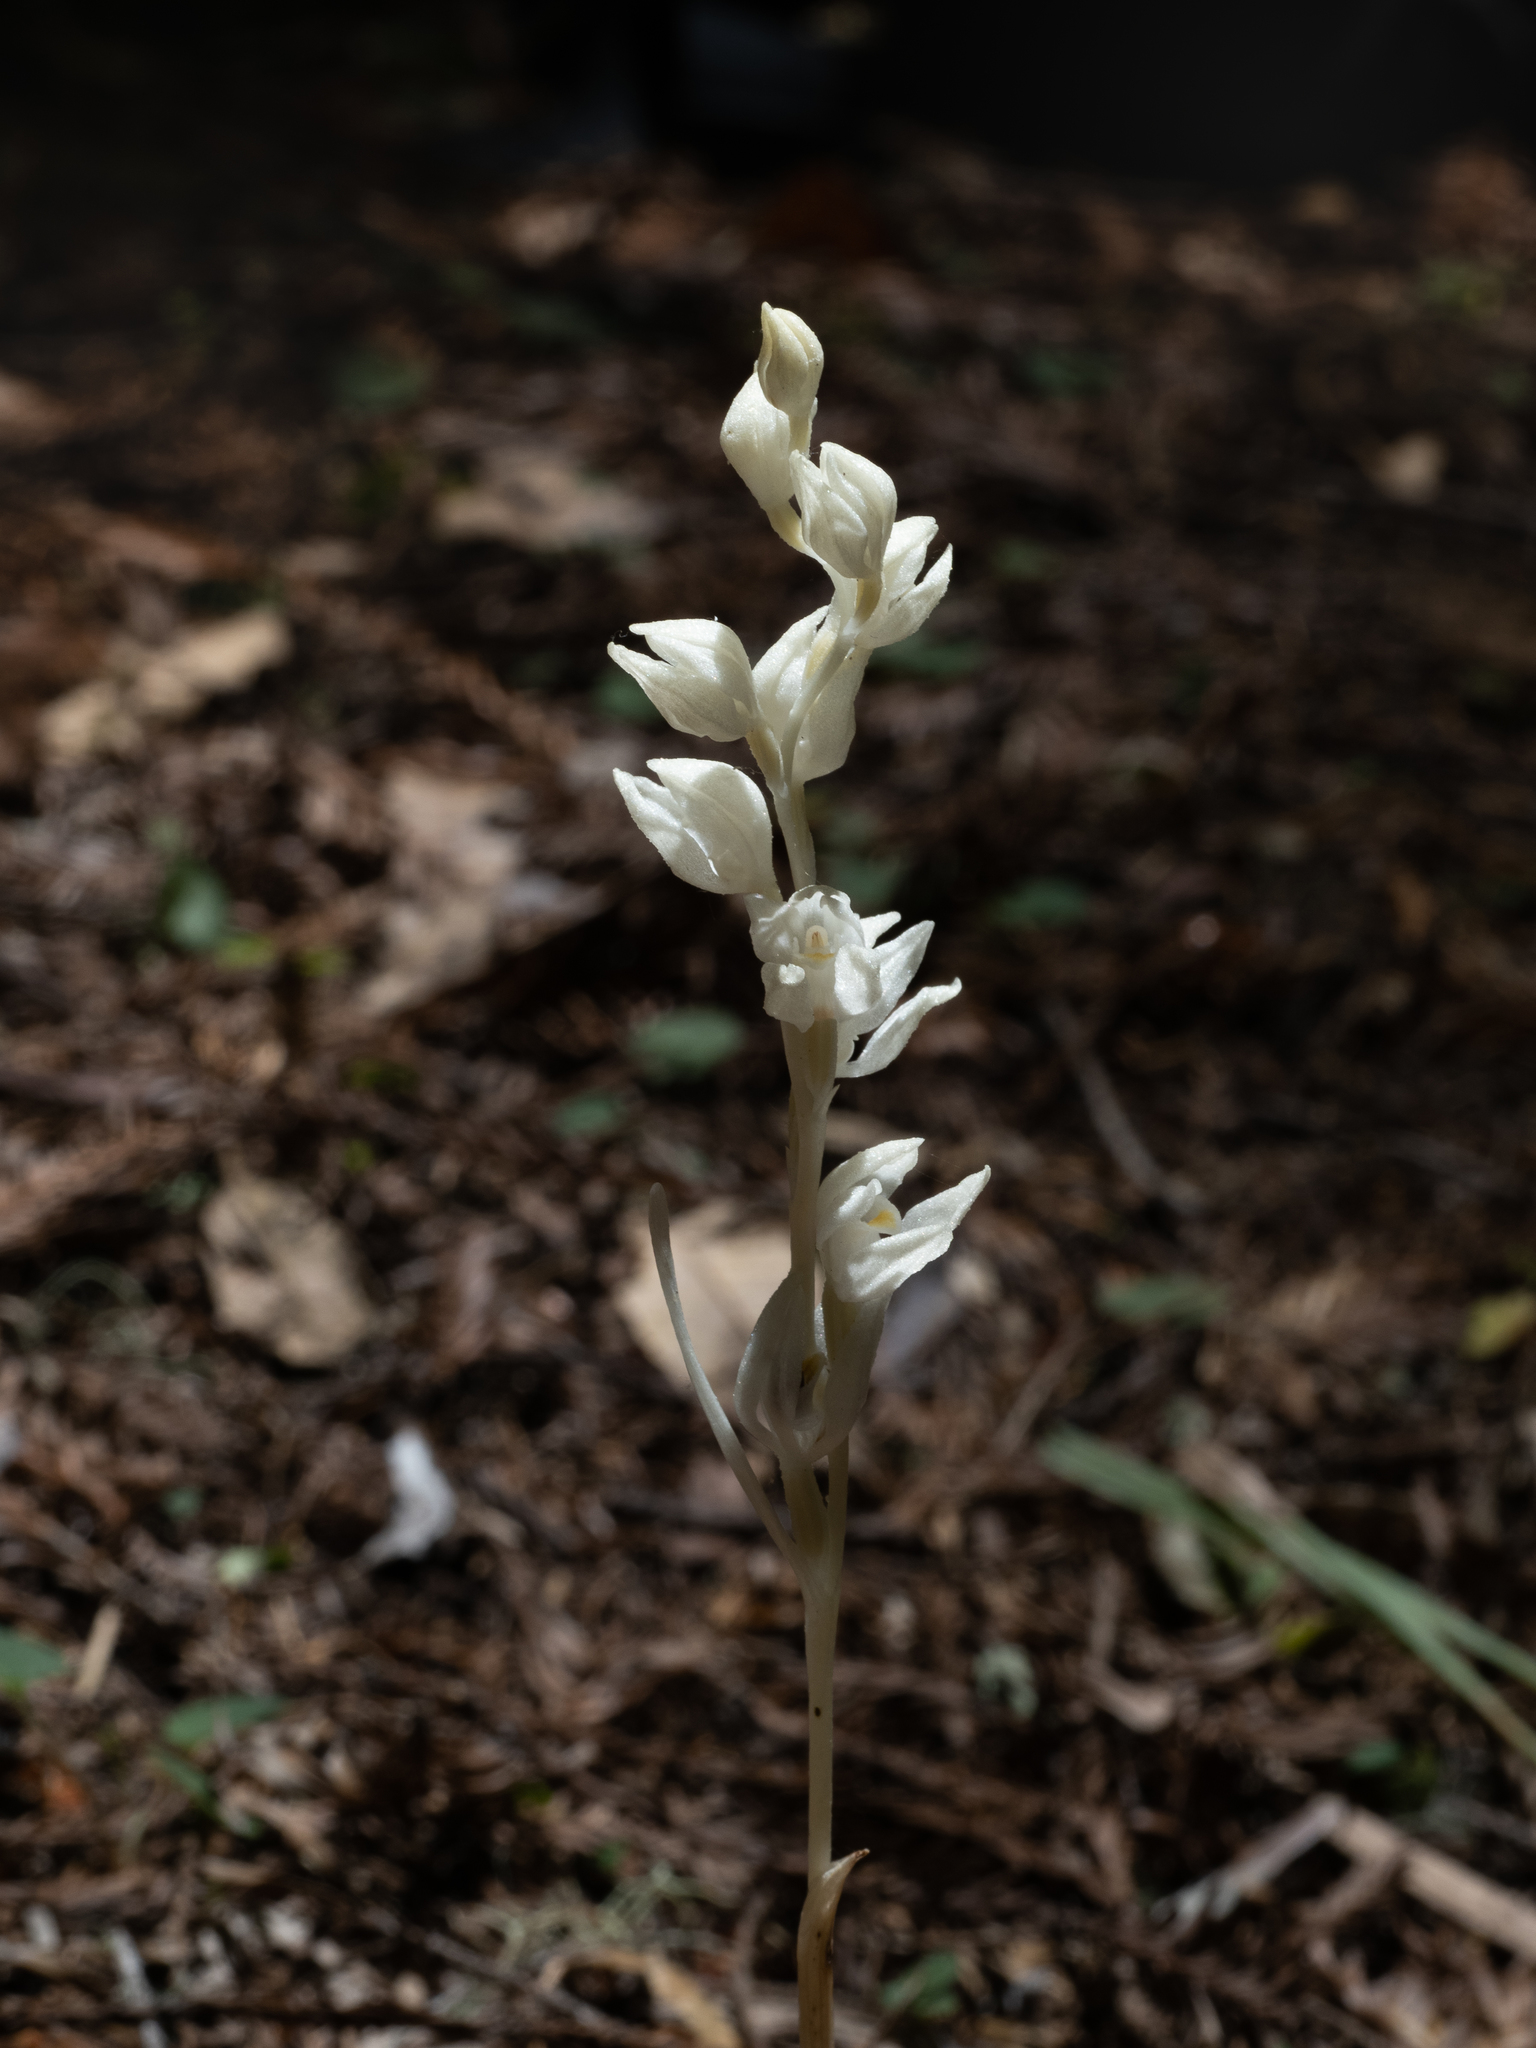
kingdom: Plantae
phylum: Tracheophyta
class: Liliopsida
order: Asparagales
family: Orchidaceae
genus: Cephalanthera
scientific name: Cephalanthera austiniae
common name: Phantom orchid
